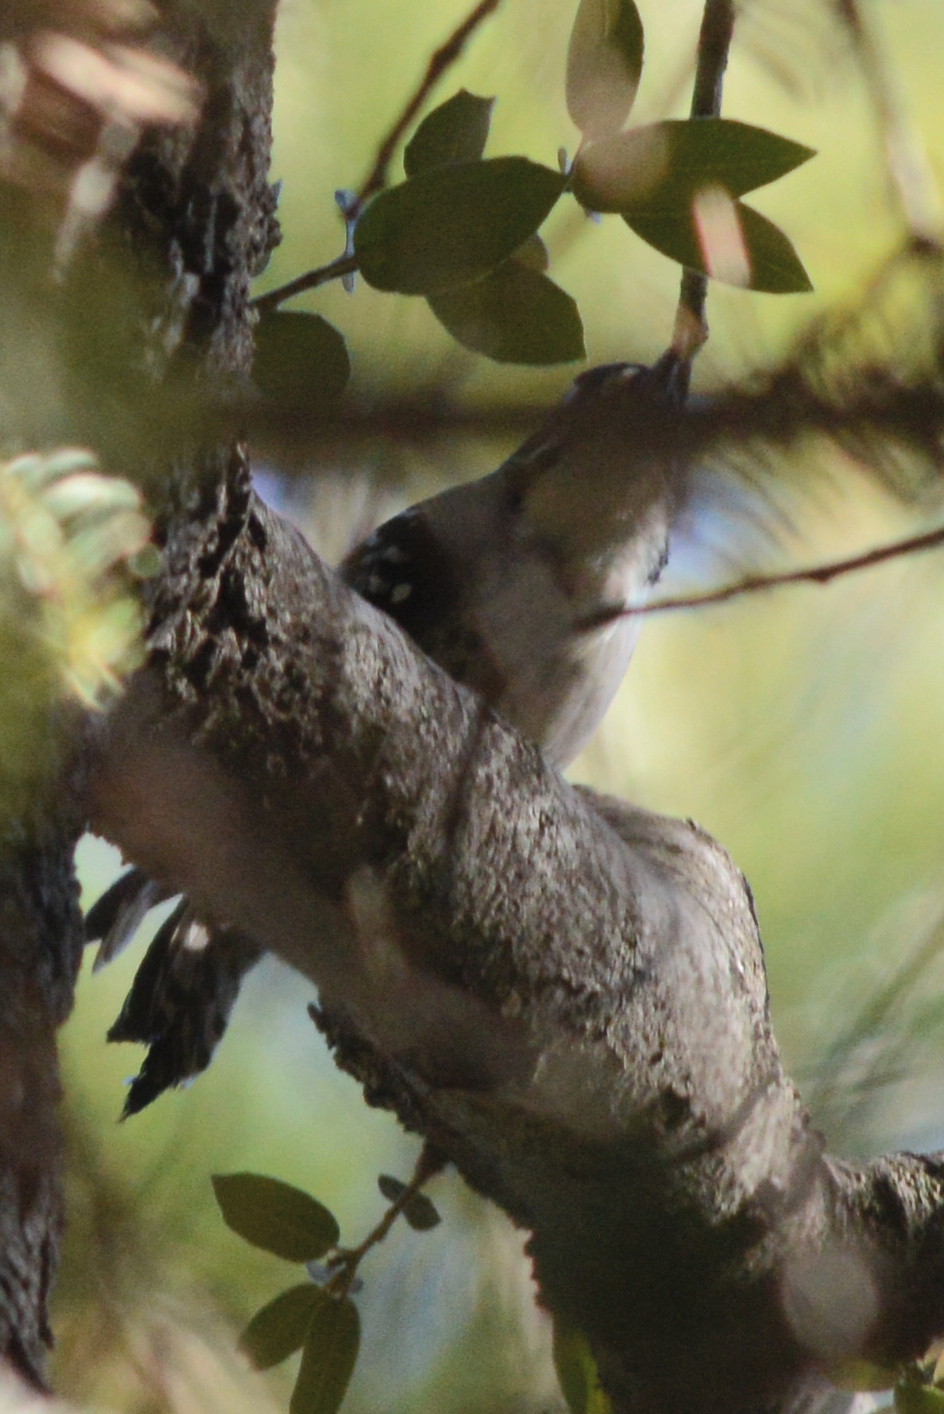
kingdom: Animalia
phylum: Chordata
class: Aves
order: Piciformes
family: Picidae
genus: Dryobates
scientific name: Dryobates nuttallii
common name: Nuttall's woodpecker
